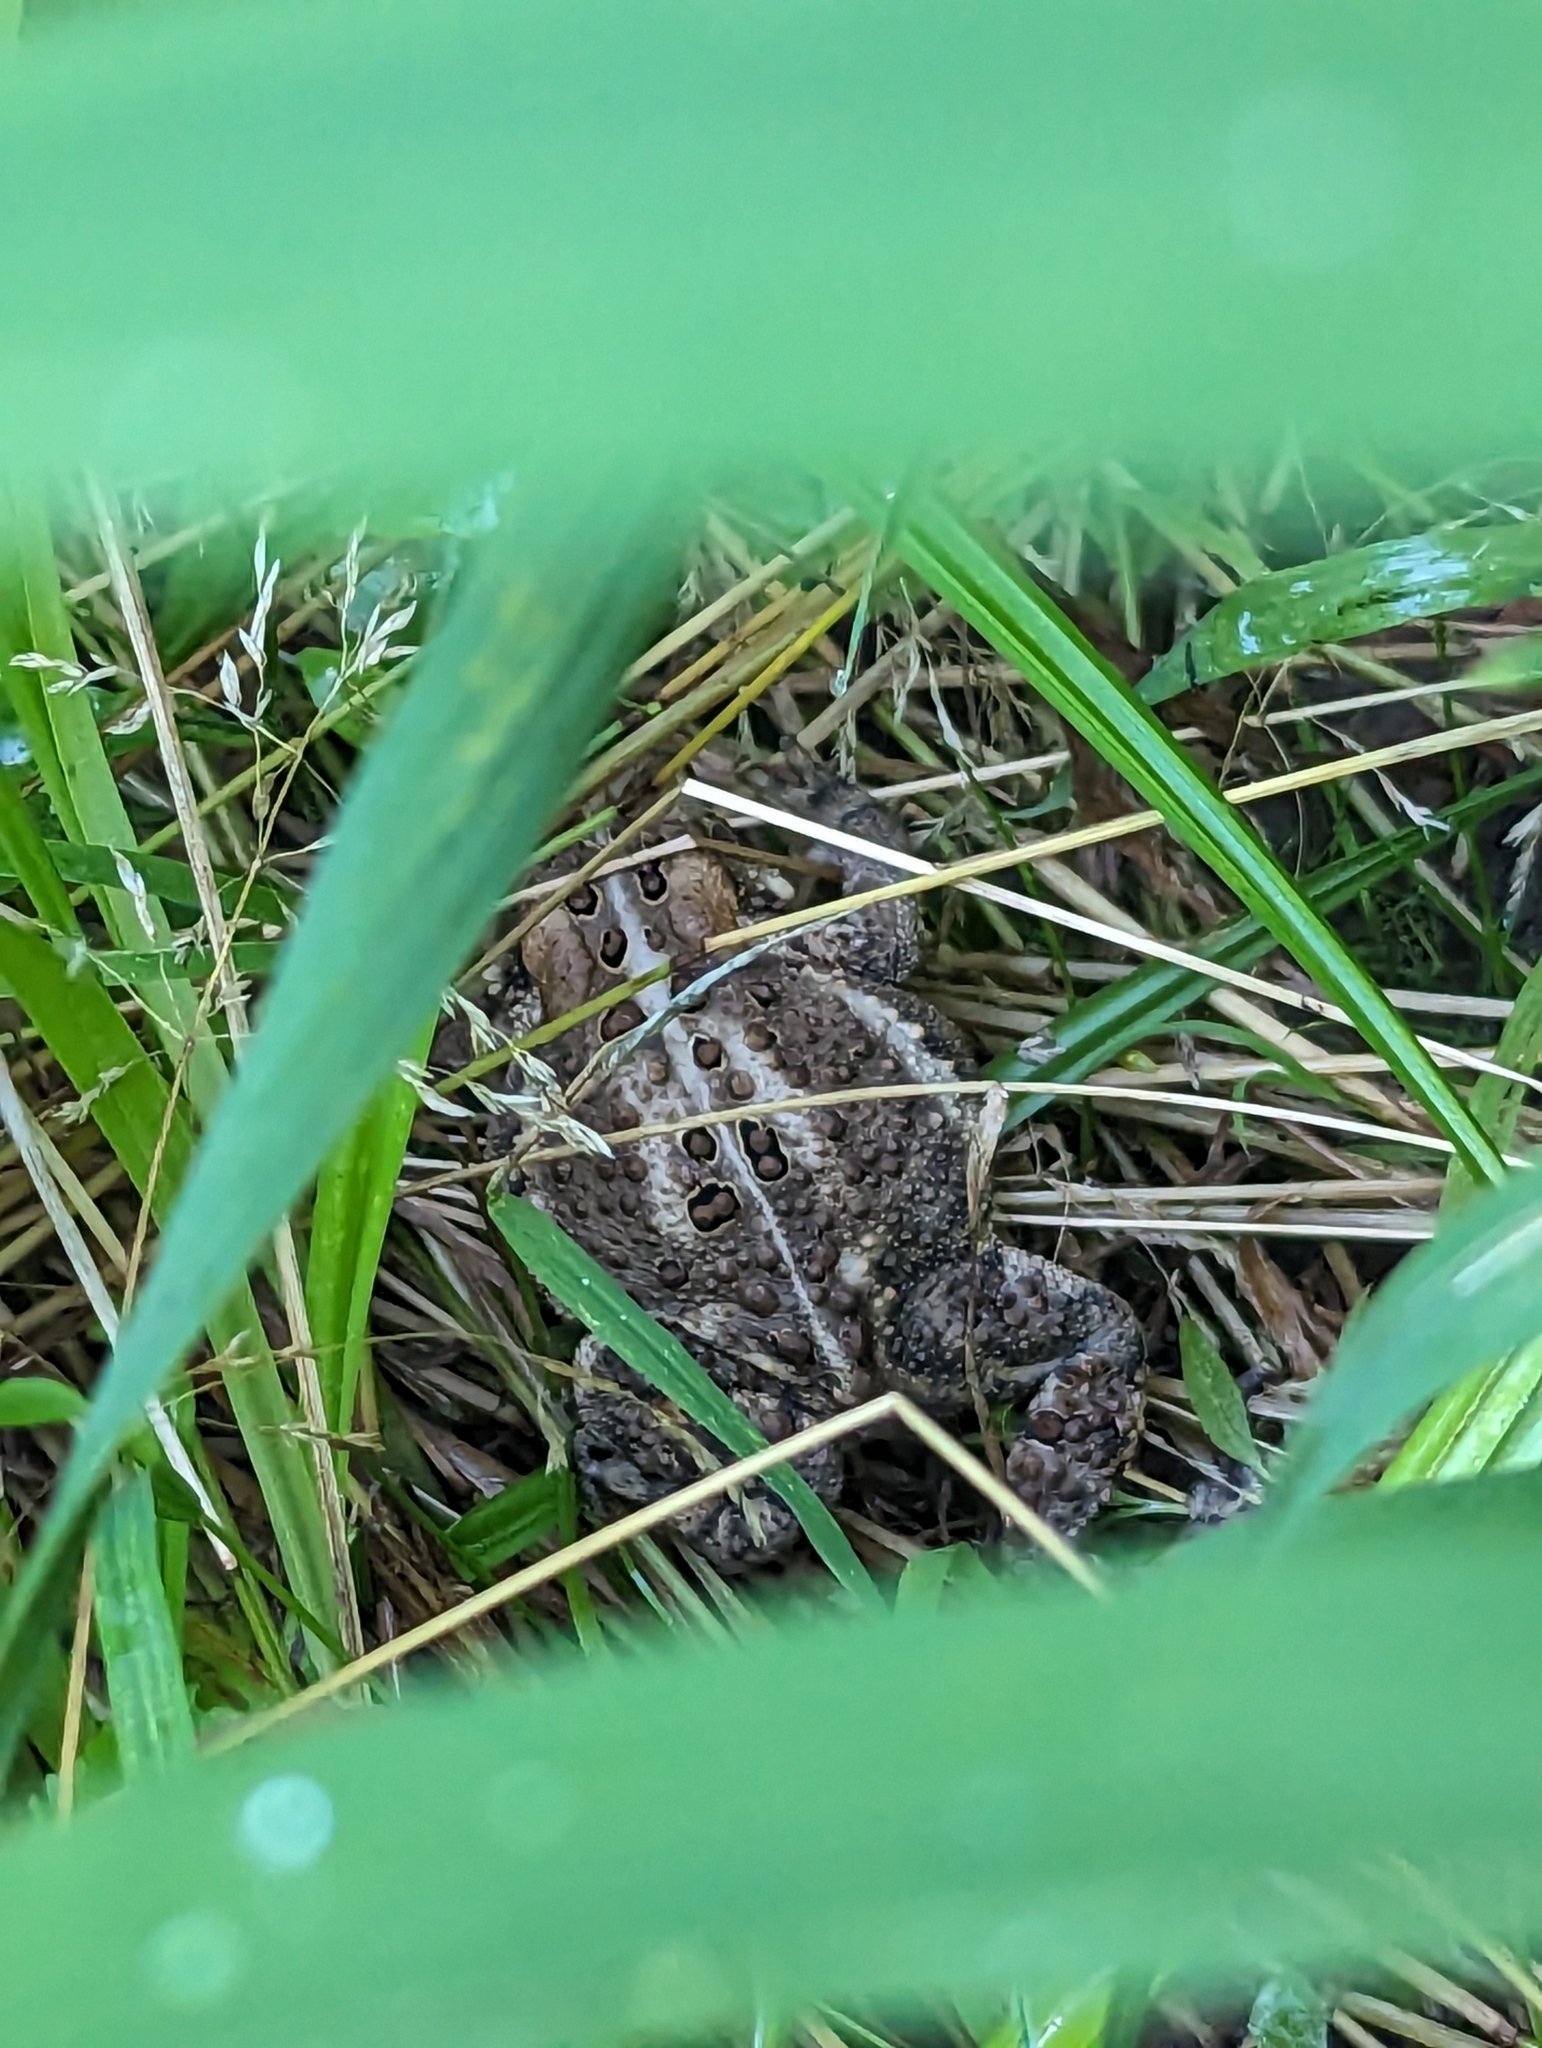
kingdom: Animalia
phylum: Chordata
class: Amphibia
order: Anura
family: Bufonidae
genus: Anaxyrus
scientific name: Anaxyrus americanus
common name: American toad
